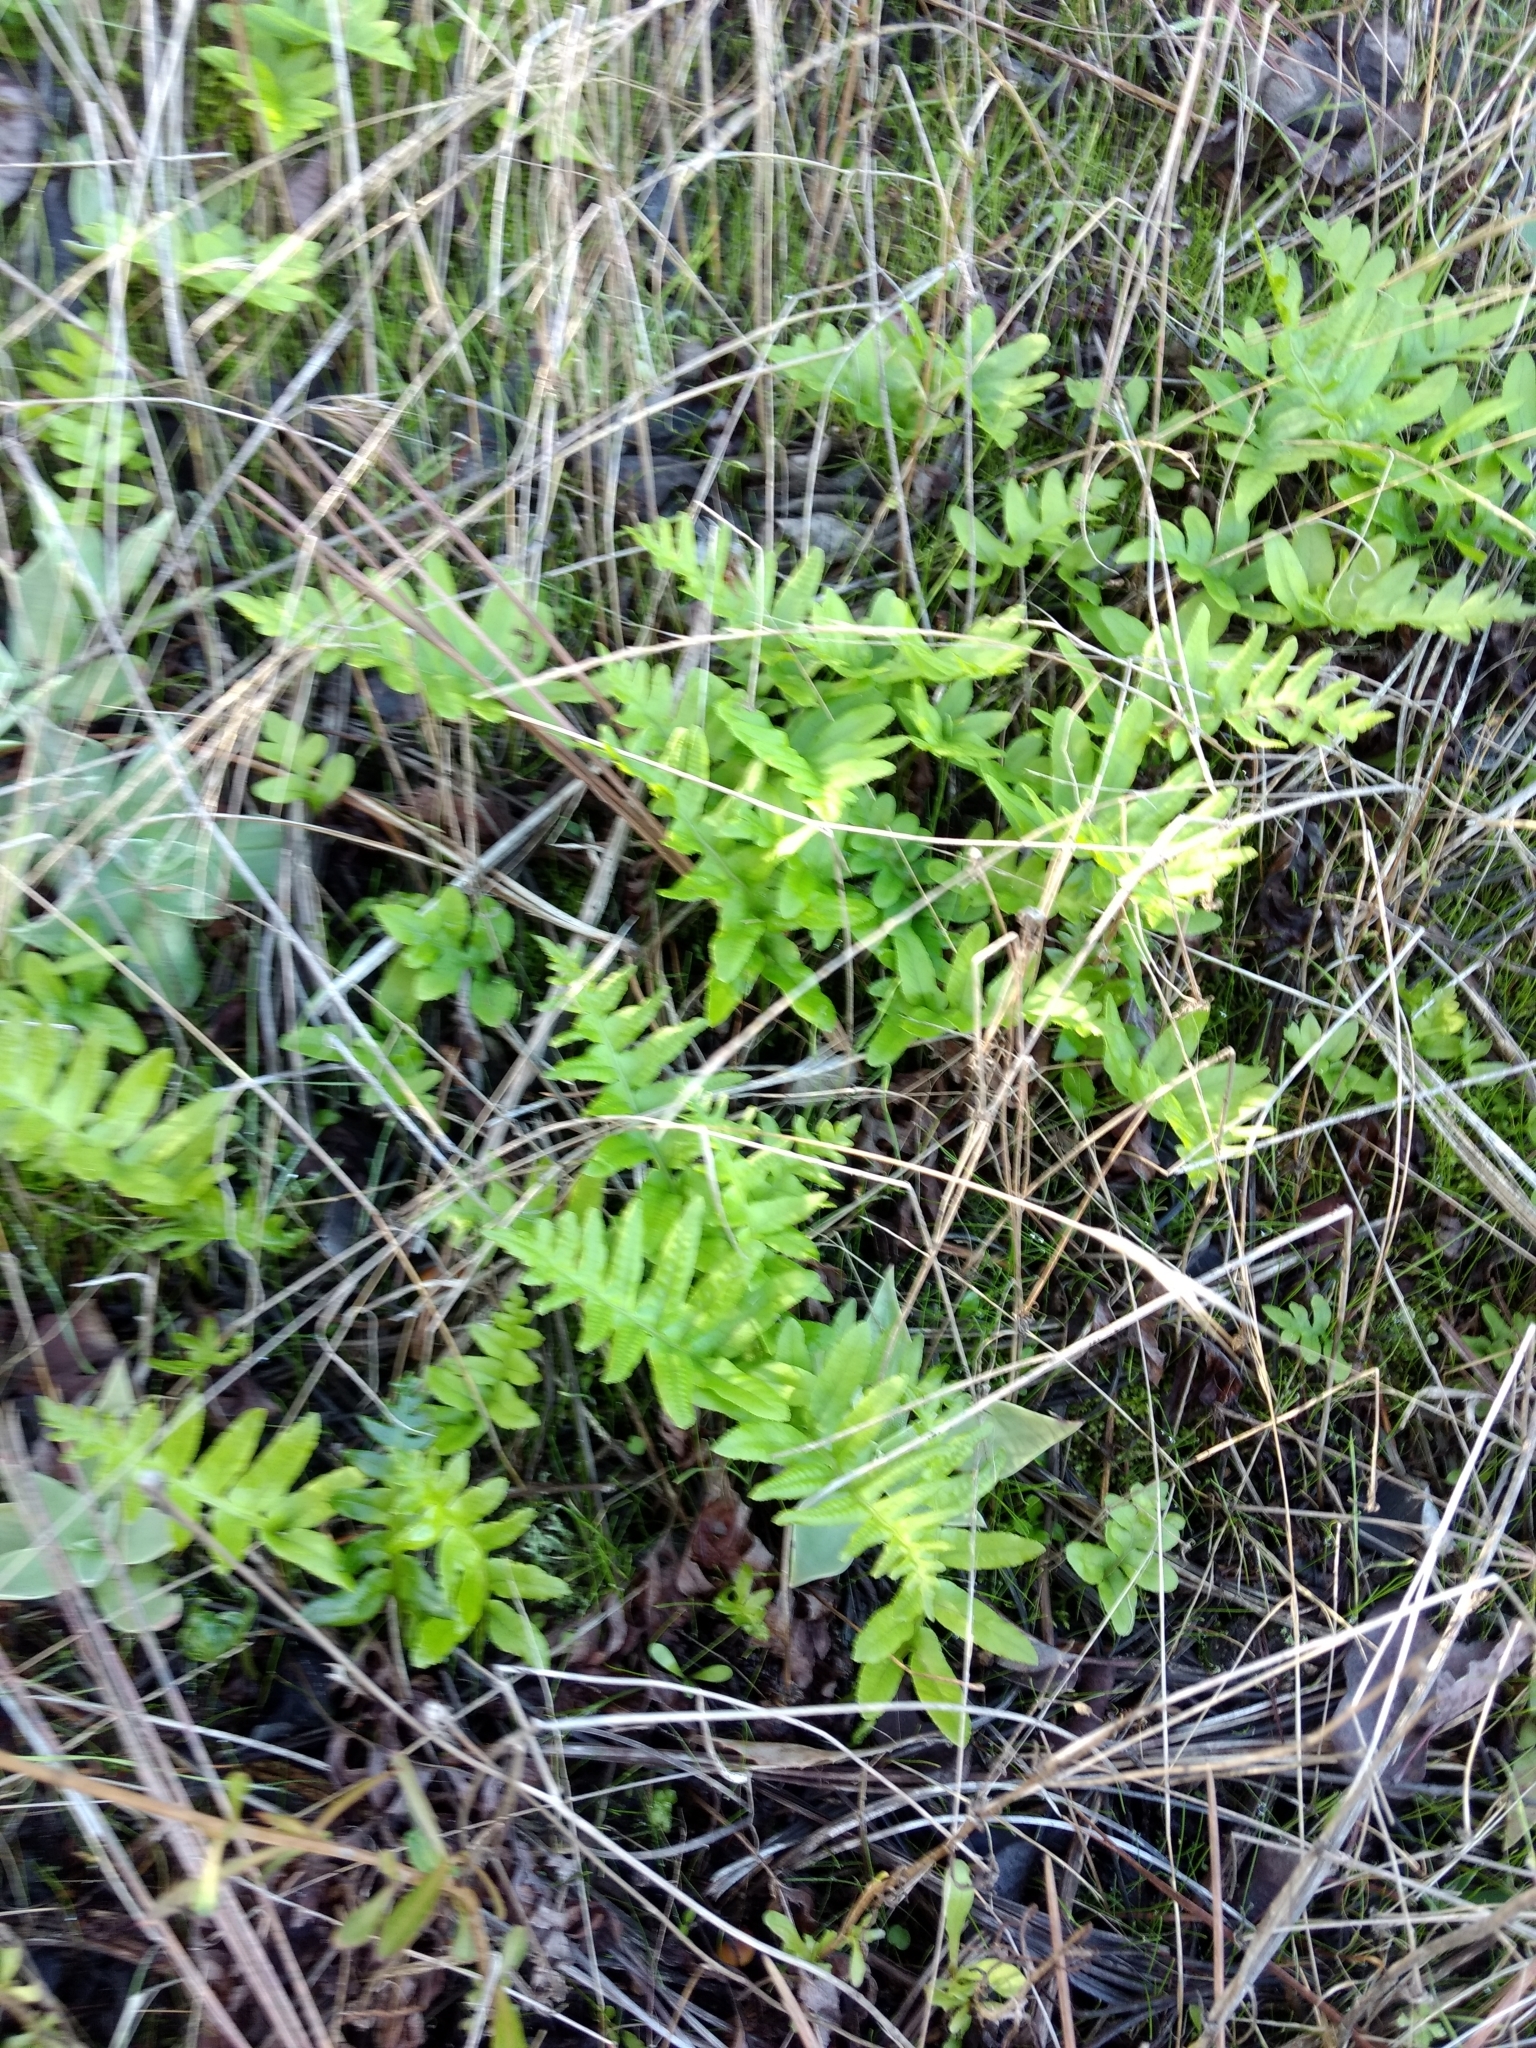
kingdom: Plantae
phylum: Tracheophyta
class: Polypodiopsida
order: Polypodiales
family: Polypodiaceae
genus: Polypodium
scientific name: Polypodium californicum
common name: California polypody
